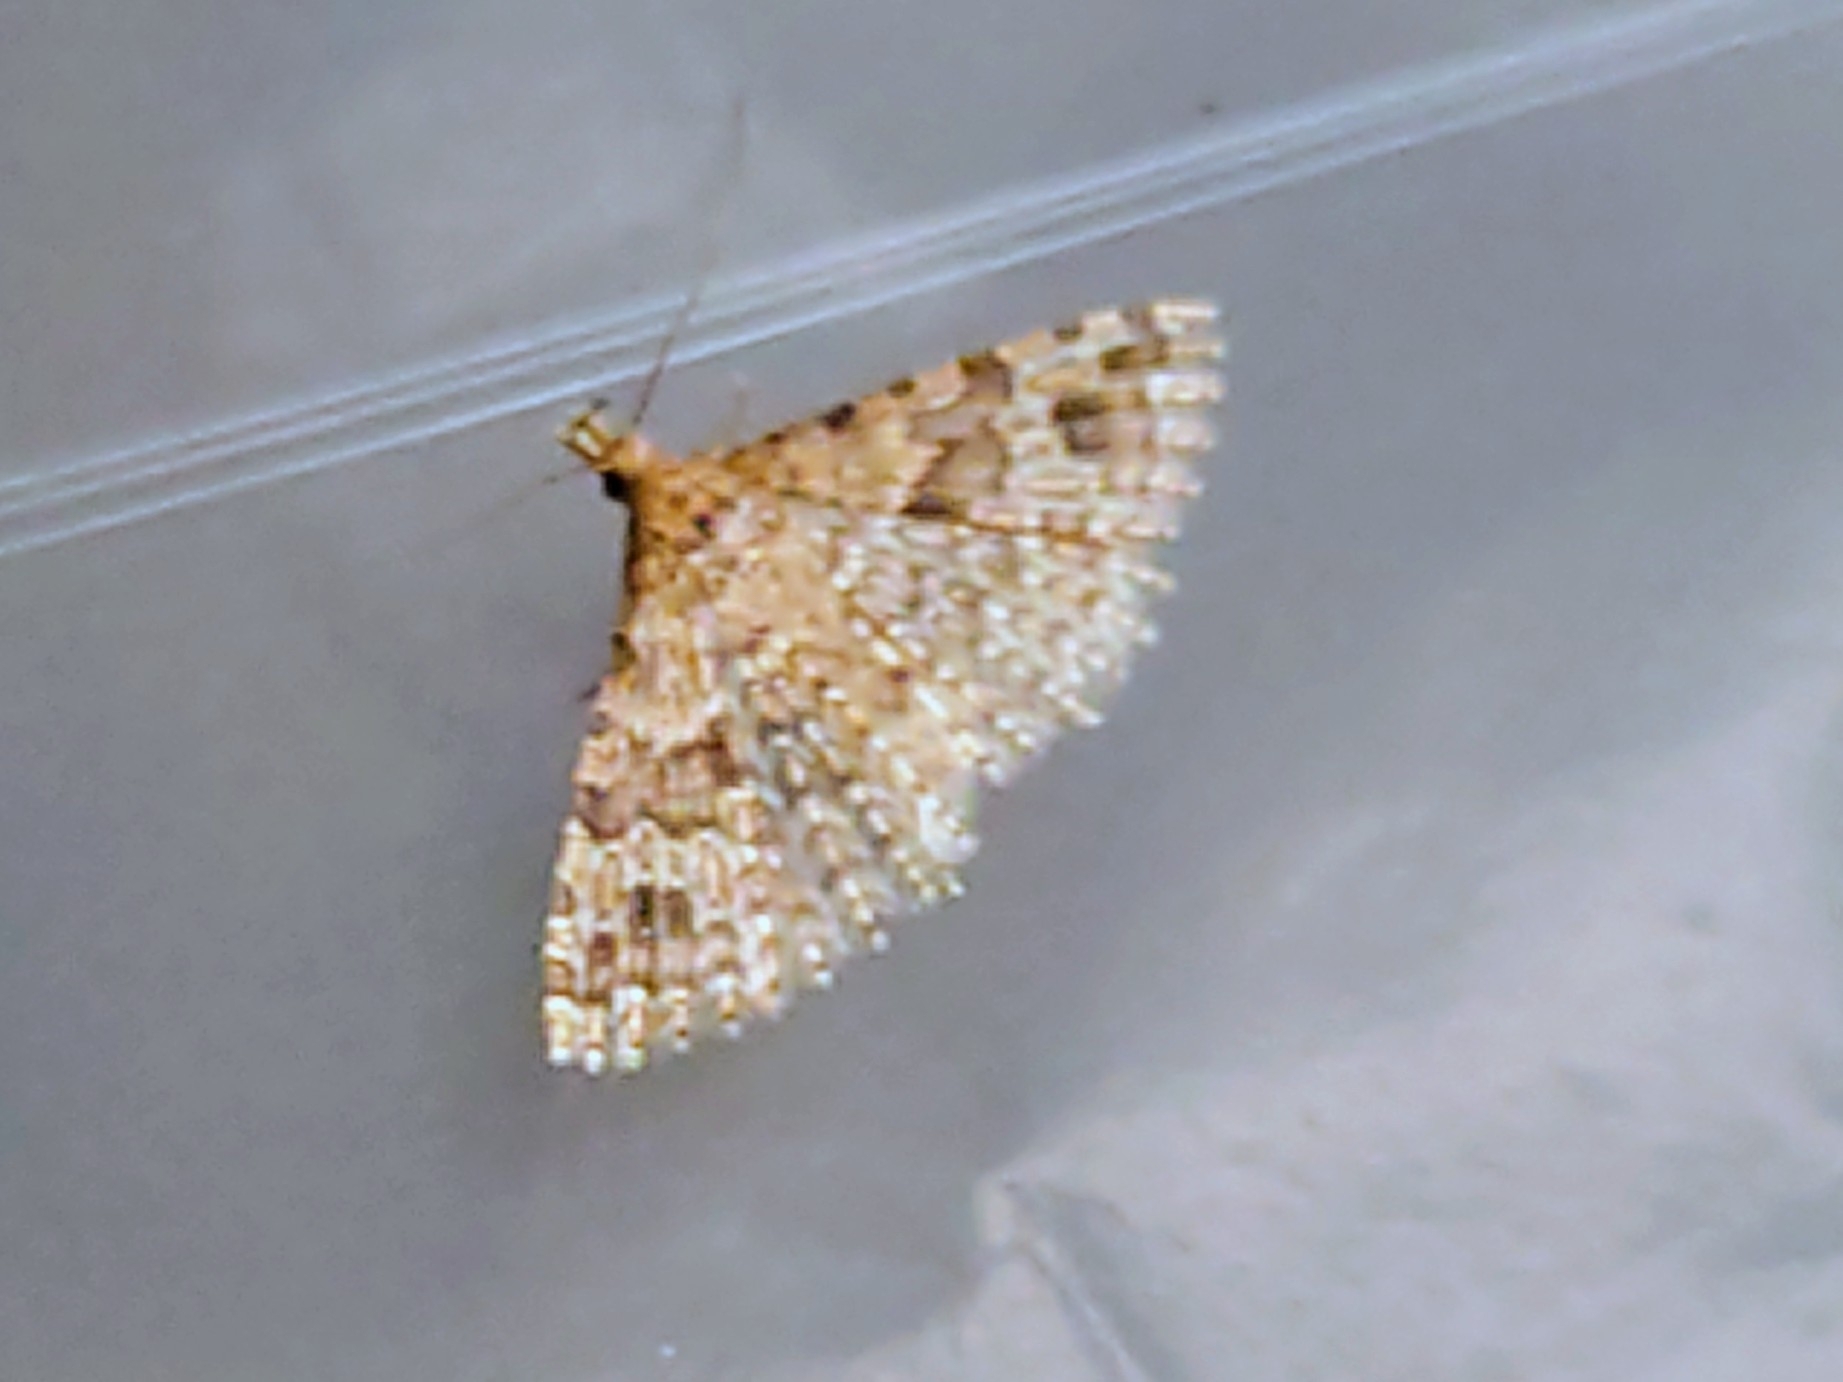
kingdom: Animalia
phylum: Arthropoda
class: Insecta
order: Lepidoptera
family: Alucitidae
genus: Alucita
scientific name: Alucita hexadactyla
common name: Twenty-plume moth
